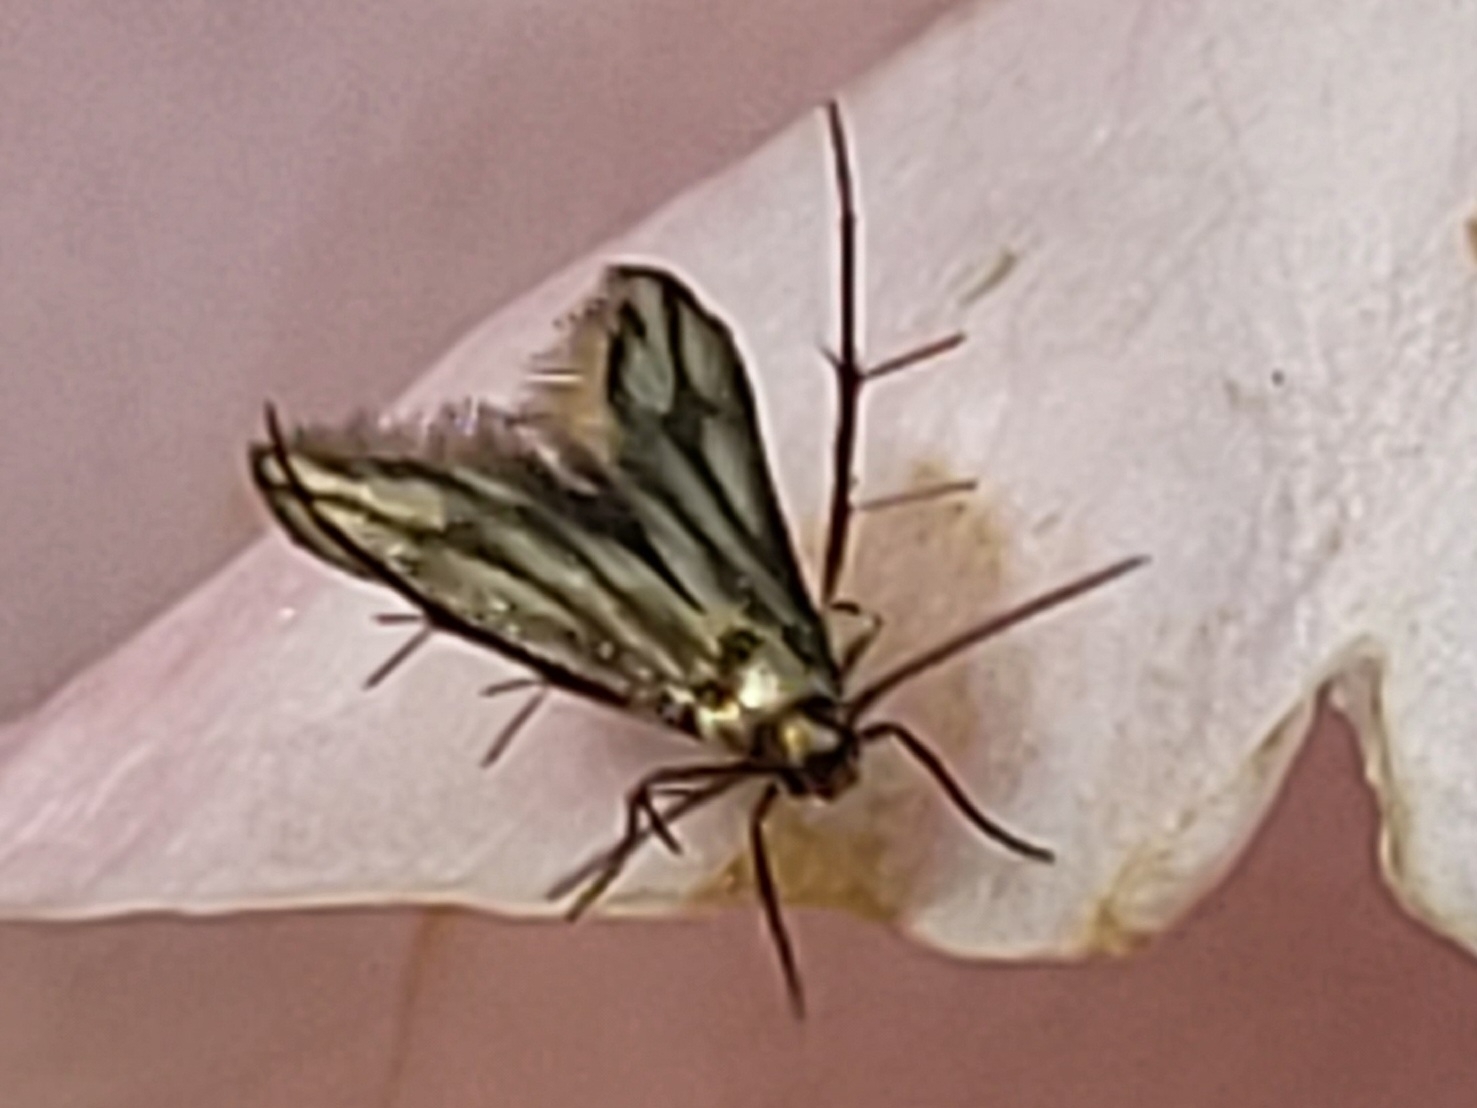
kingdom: Animalia
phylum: Arthropoda
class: Insecta
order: Lepidoptera
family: Schreckensteiniidae
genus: Schreckensteinia
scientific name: Schreckensteinia festaliella
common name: Blackberry skeletonizer
